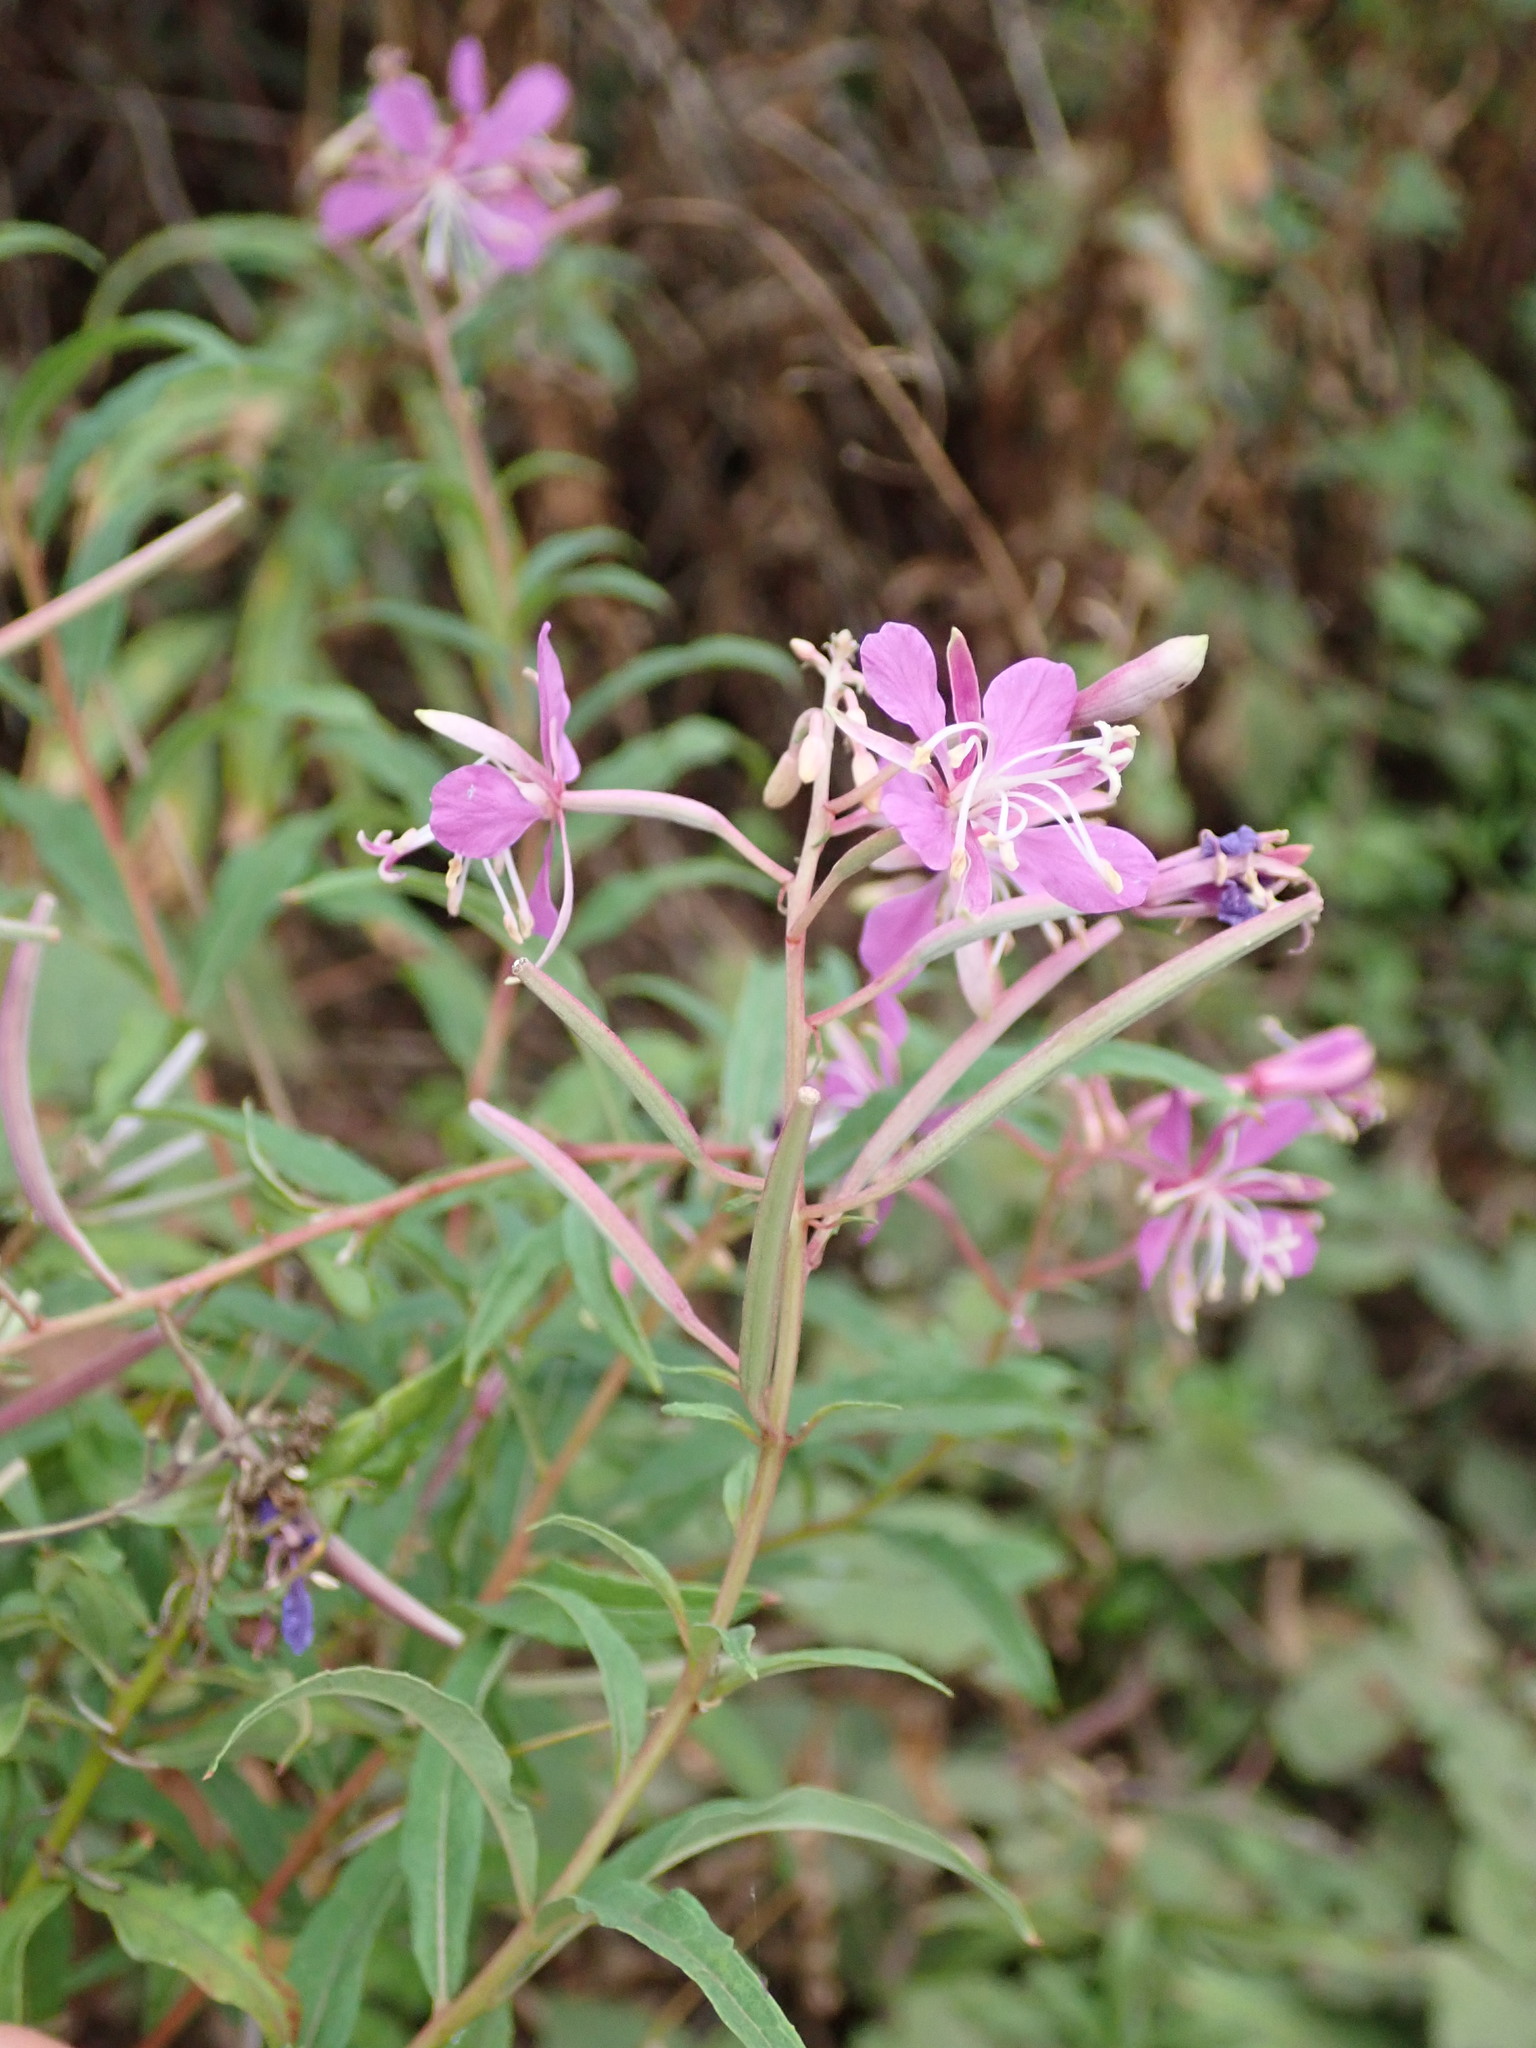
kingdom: Plantae
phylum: Tracheophyta
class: Magnoliopsida
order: Myrtales
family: Onagraceae
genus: Chamaenerion
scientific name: Chamaenerion angustifolium
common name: Fireweed
